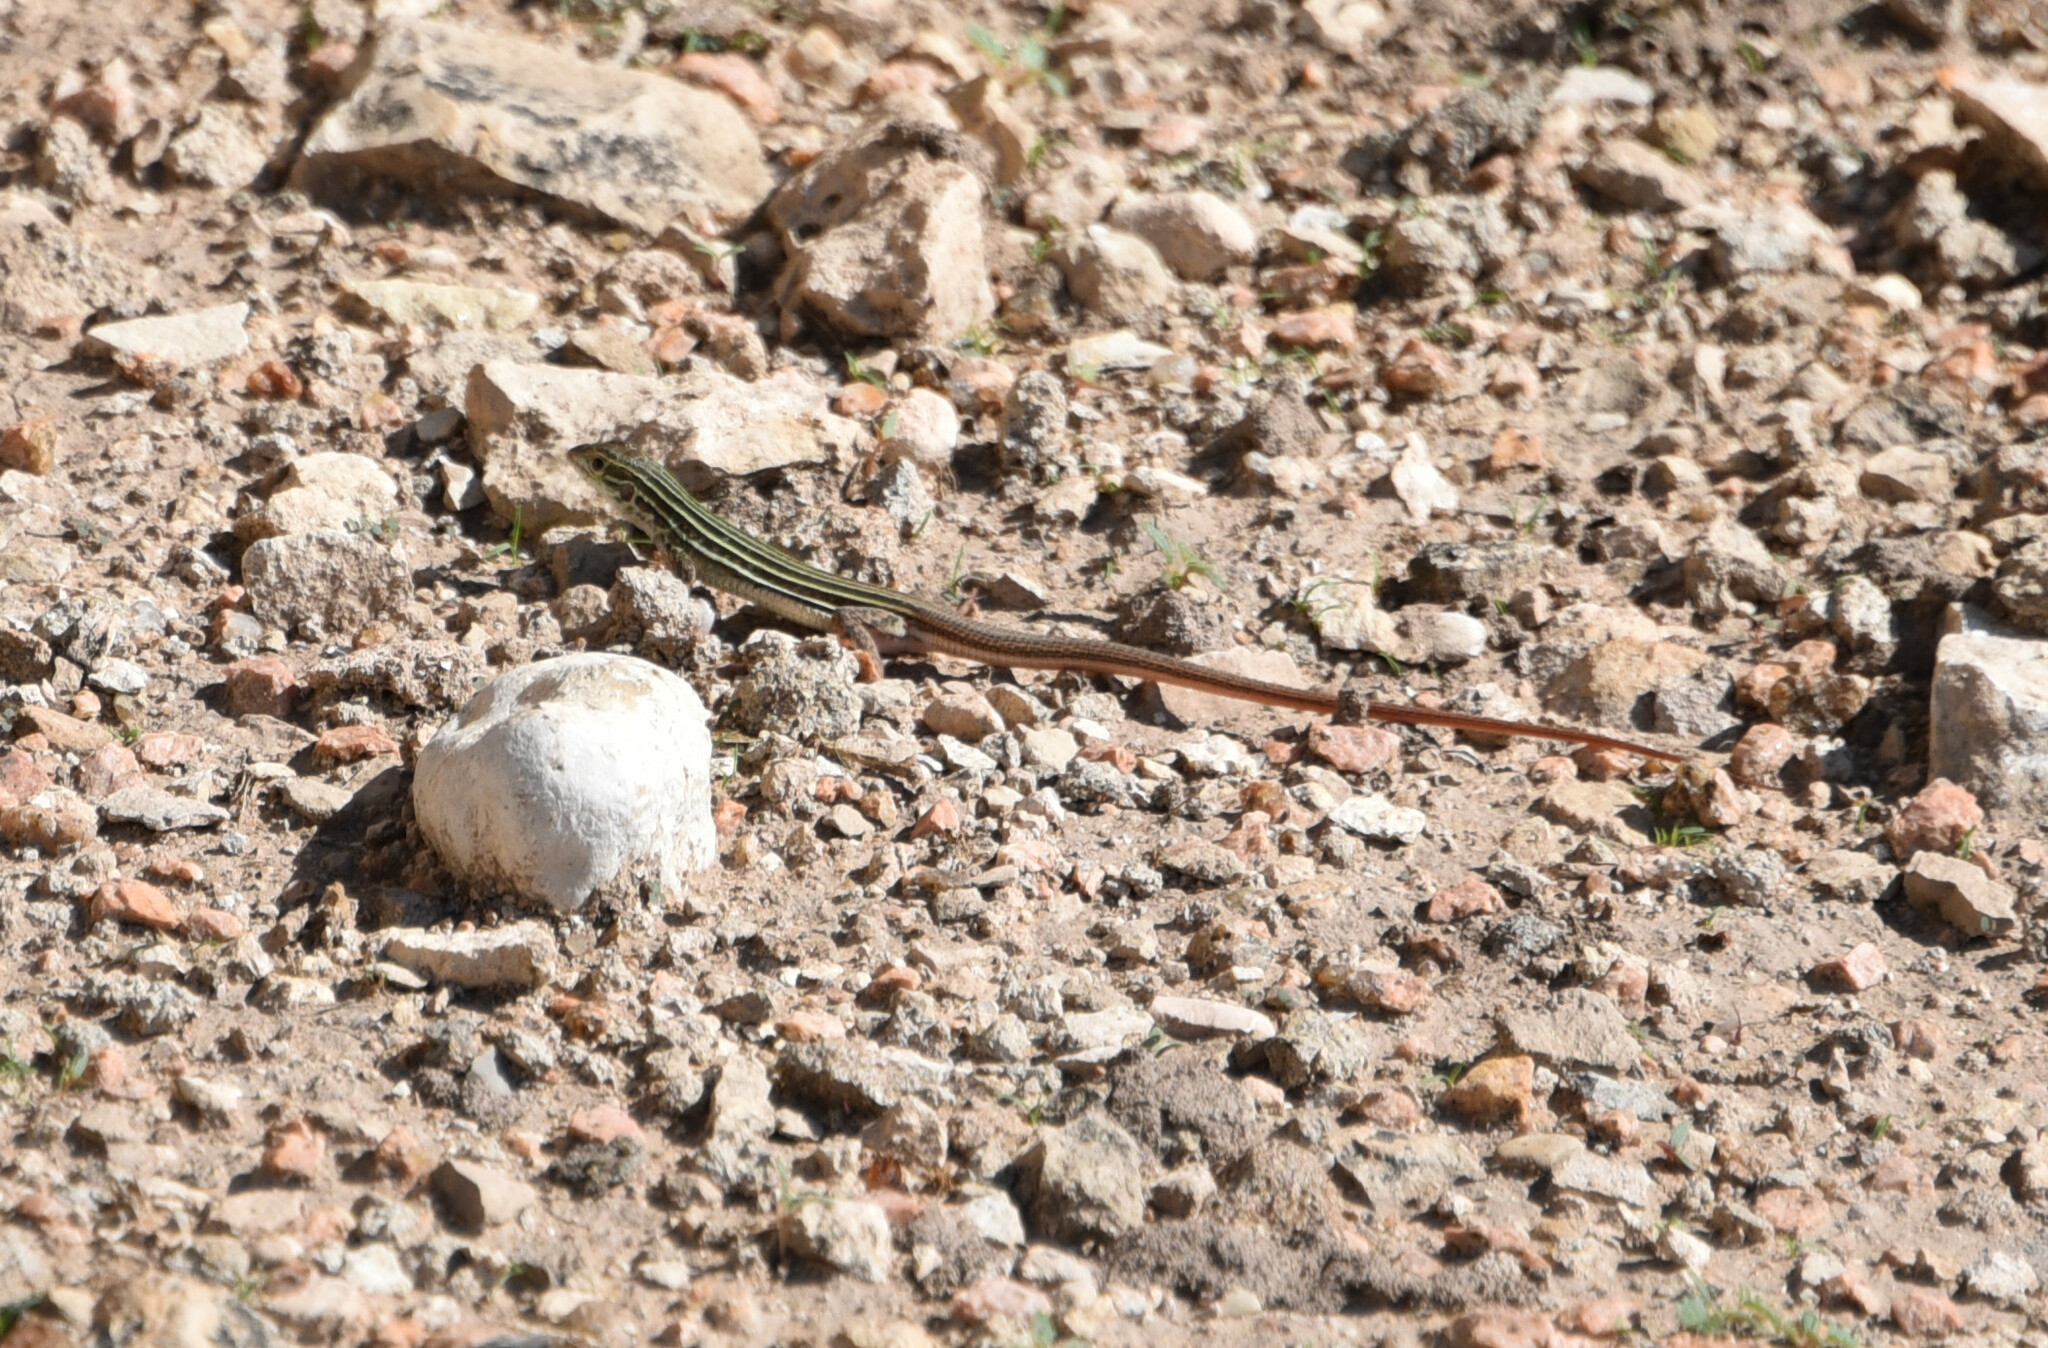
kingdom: Animalia
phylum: Chordata
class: Squamata
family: Teiidae
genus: Aspidoscelis
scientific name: Aspidoscelis gularis
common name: Eastern spotted whiptail
